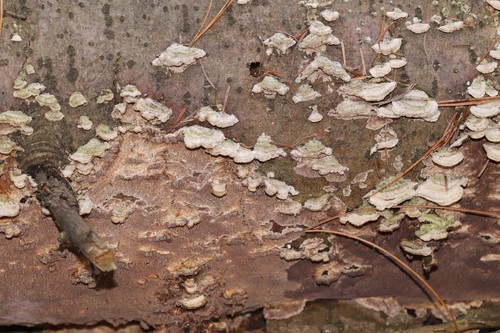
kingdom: Fungi
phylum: Basidiomycota
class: Agaricomycetes
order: Hymenochaetales
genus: Trichaptum
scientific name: Trichaptum fuscoviolaceum
